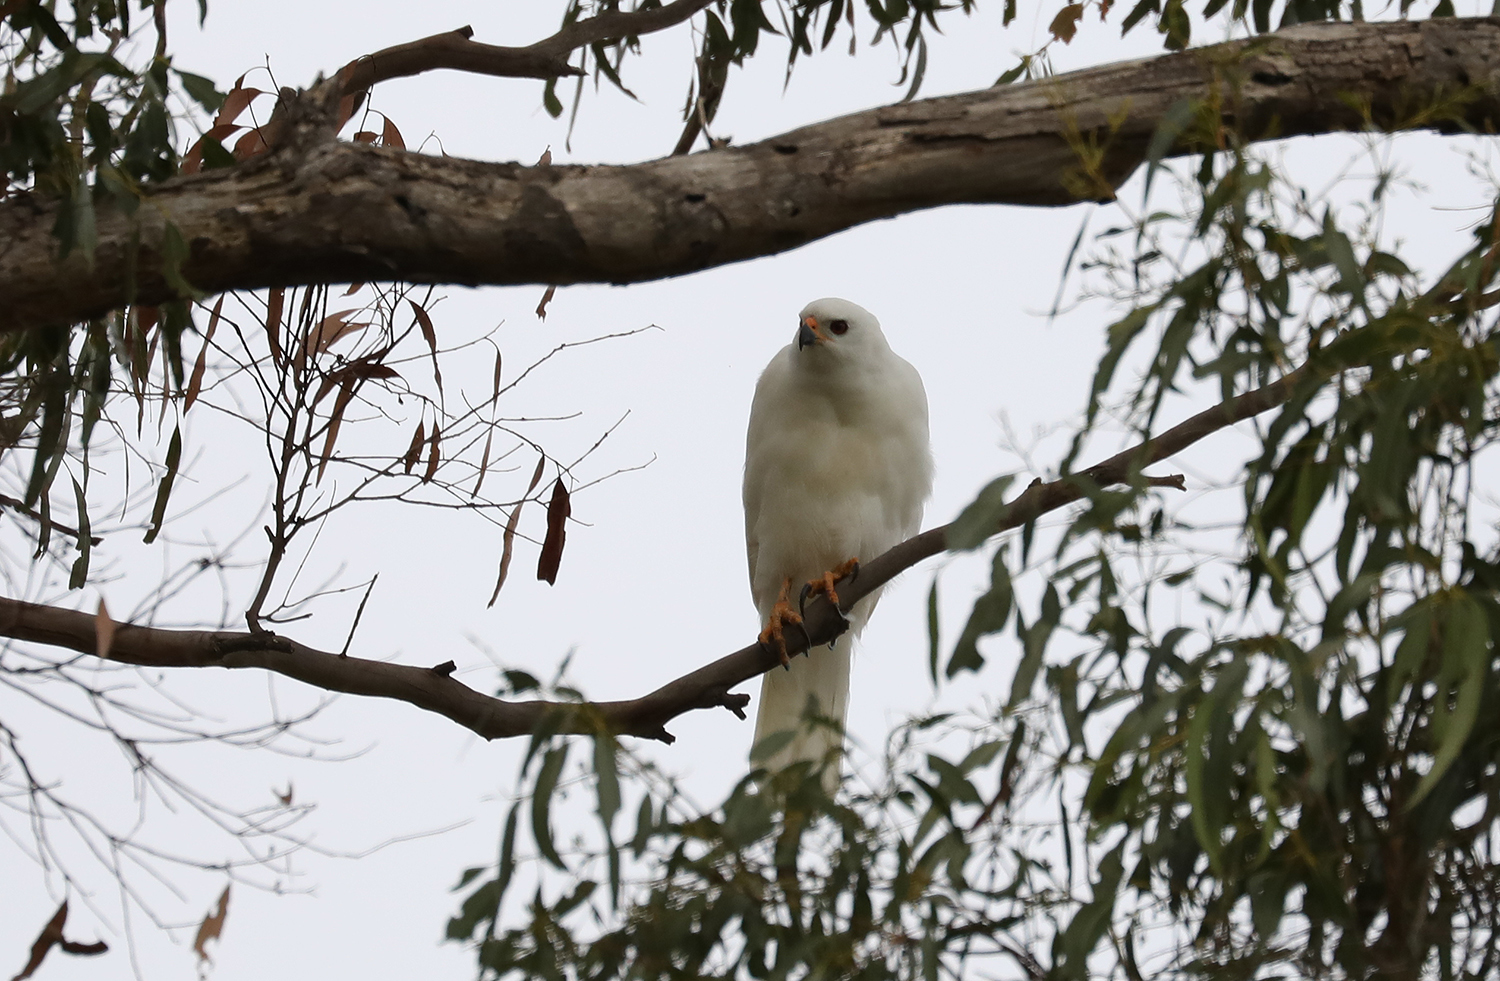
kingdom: Animalia
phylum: Chordata
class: Aves
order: Accipitriformes
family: Accipitridae
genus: Accipiter
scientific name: Accipiter novaehollandiae
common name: Grey goshawk
